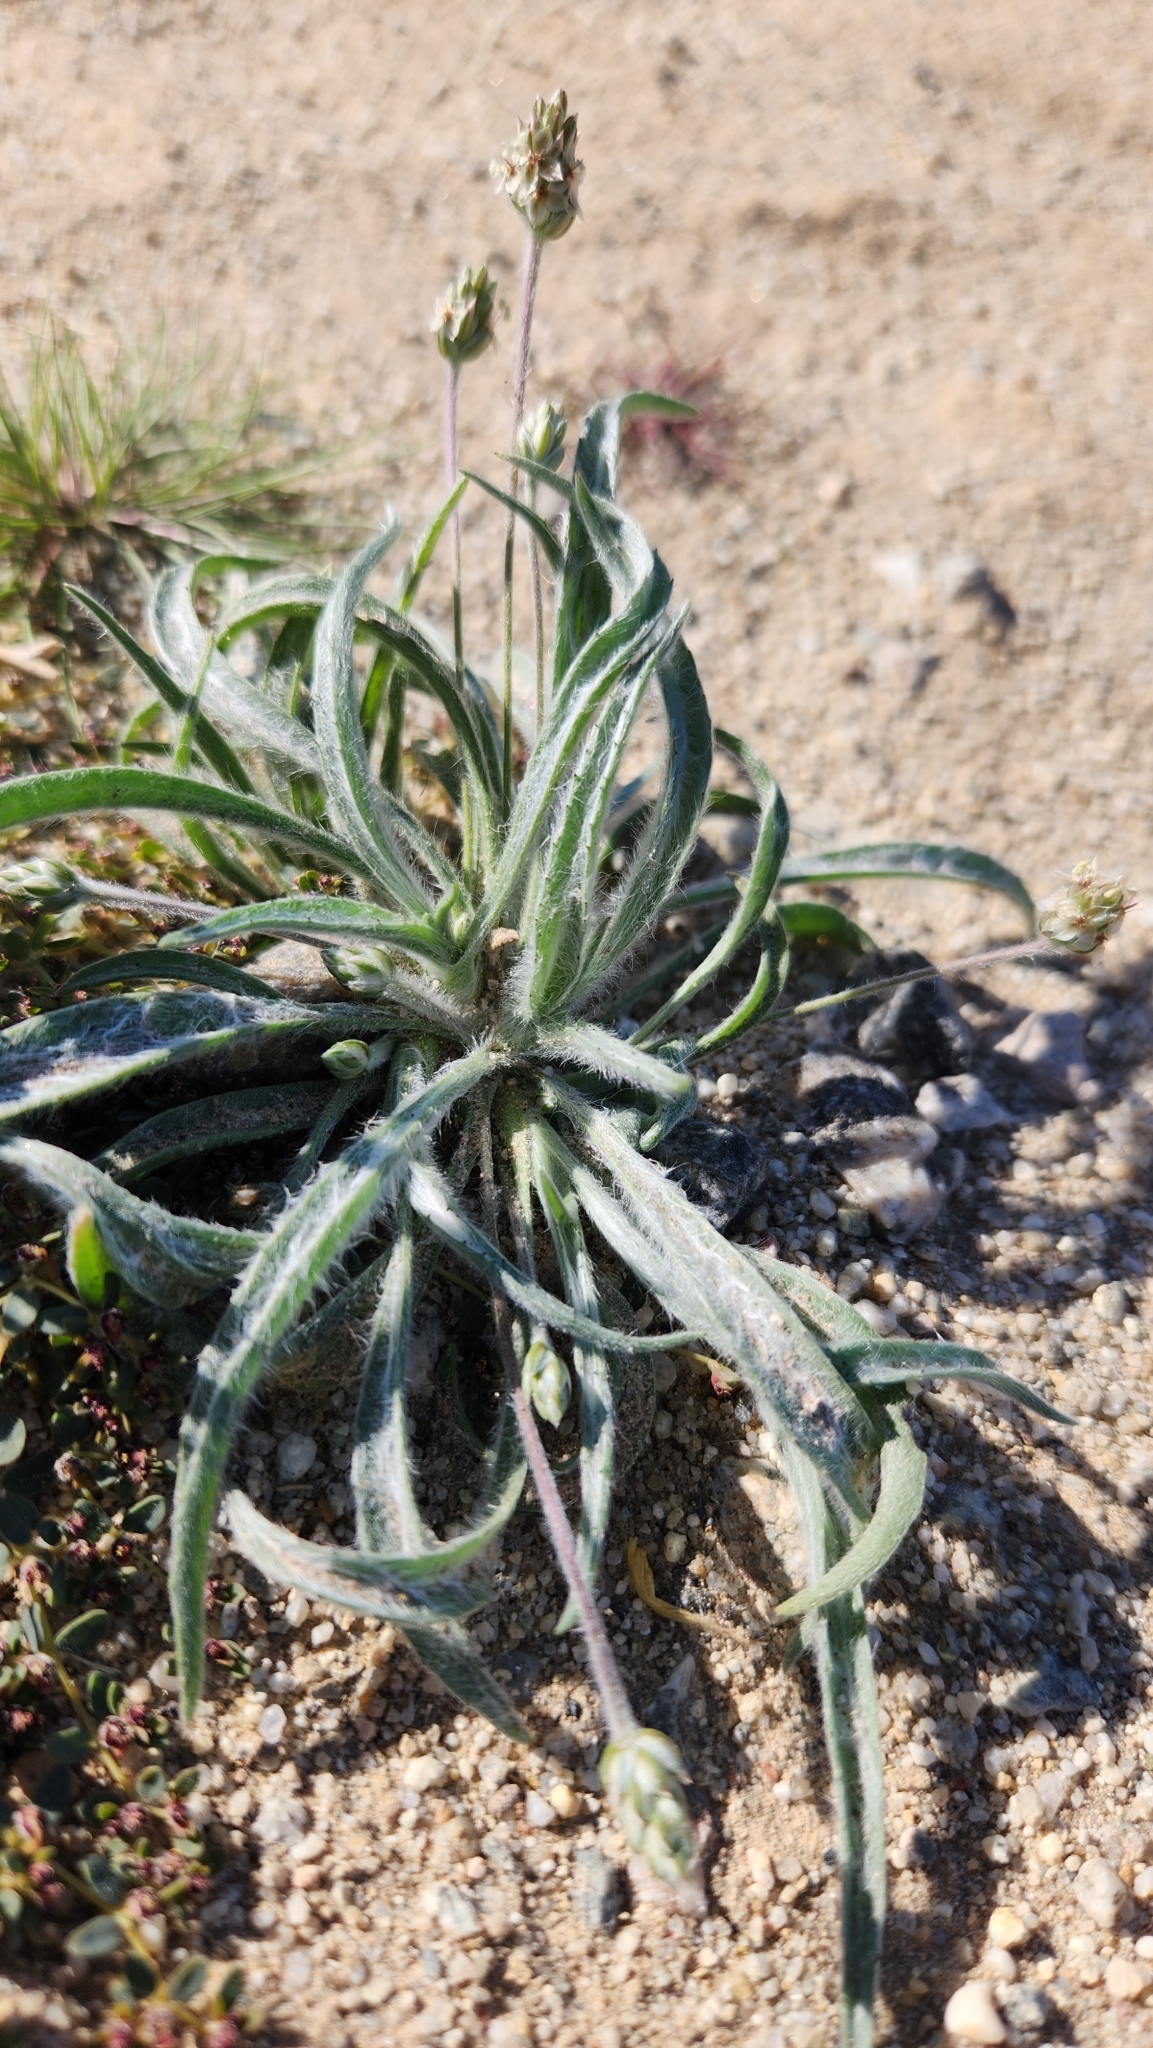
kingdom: Plantae
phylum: Tracheophyta
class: Magnoliopsida
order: Lamiales
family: Plantaginaceae
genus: Plantago
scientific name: Plantago ovata
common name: Blond plantain
